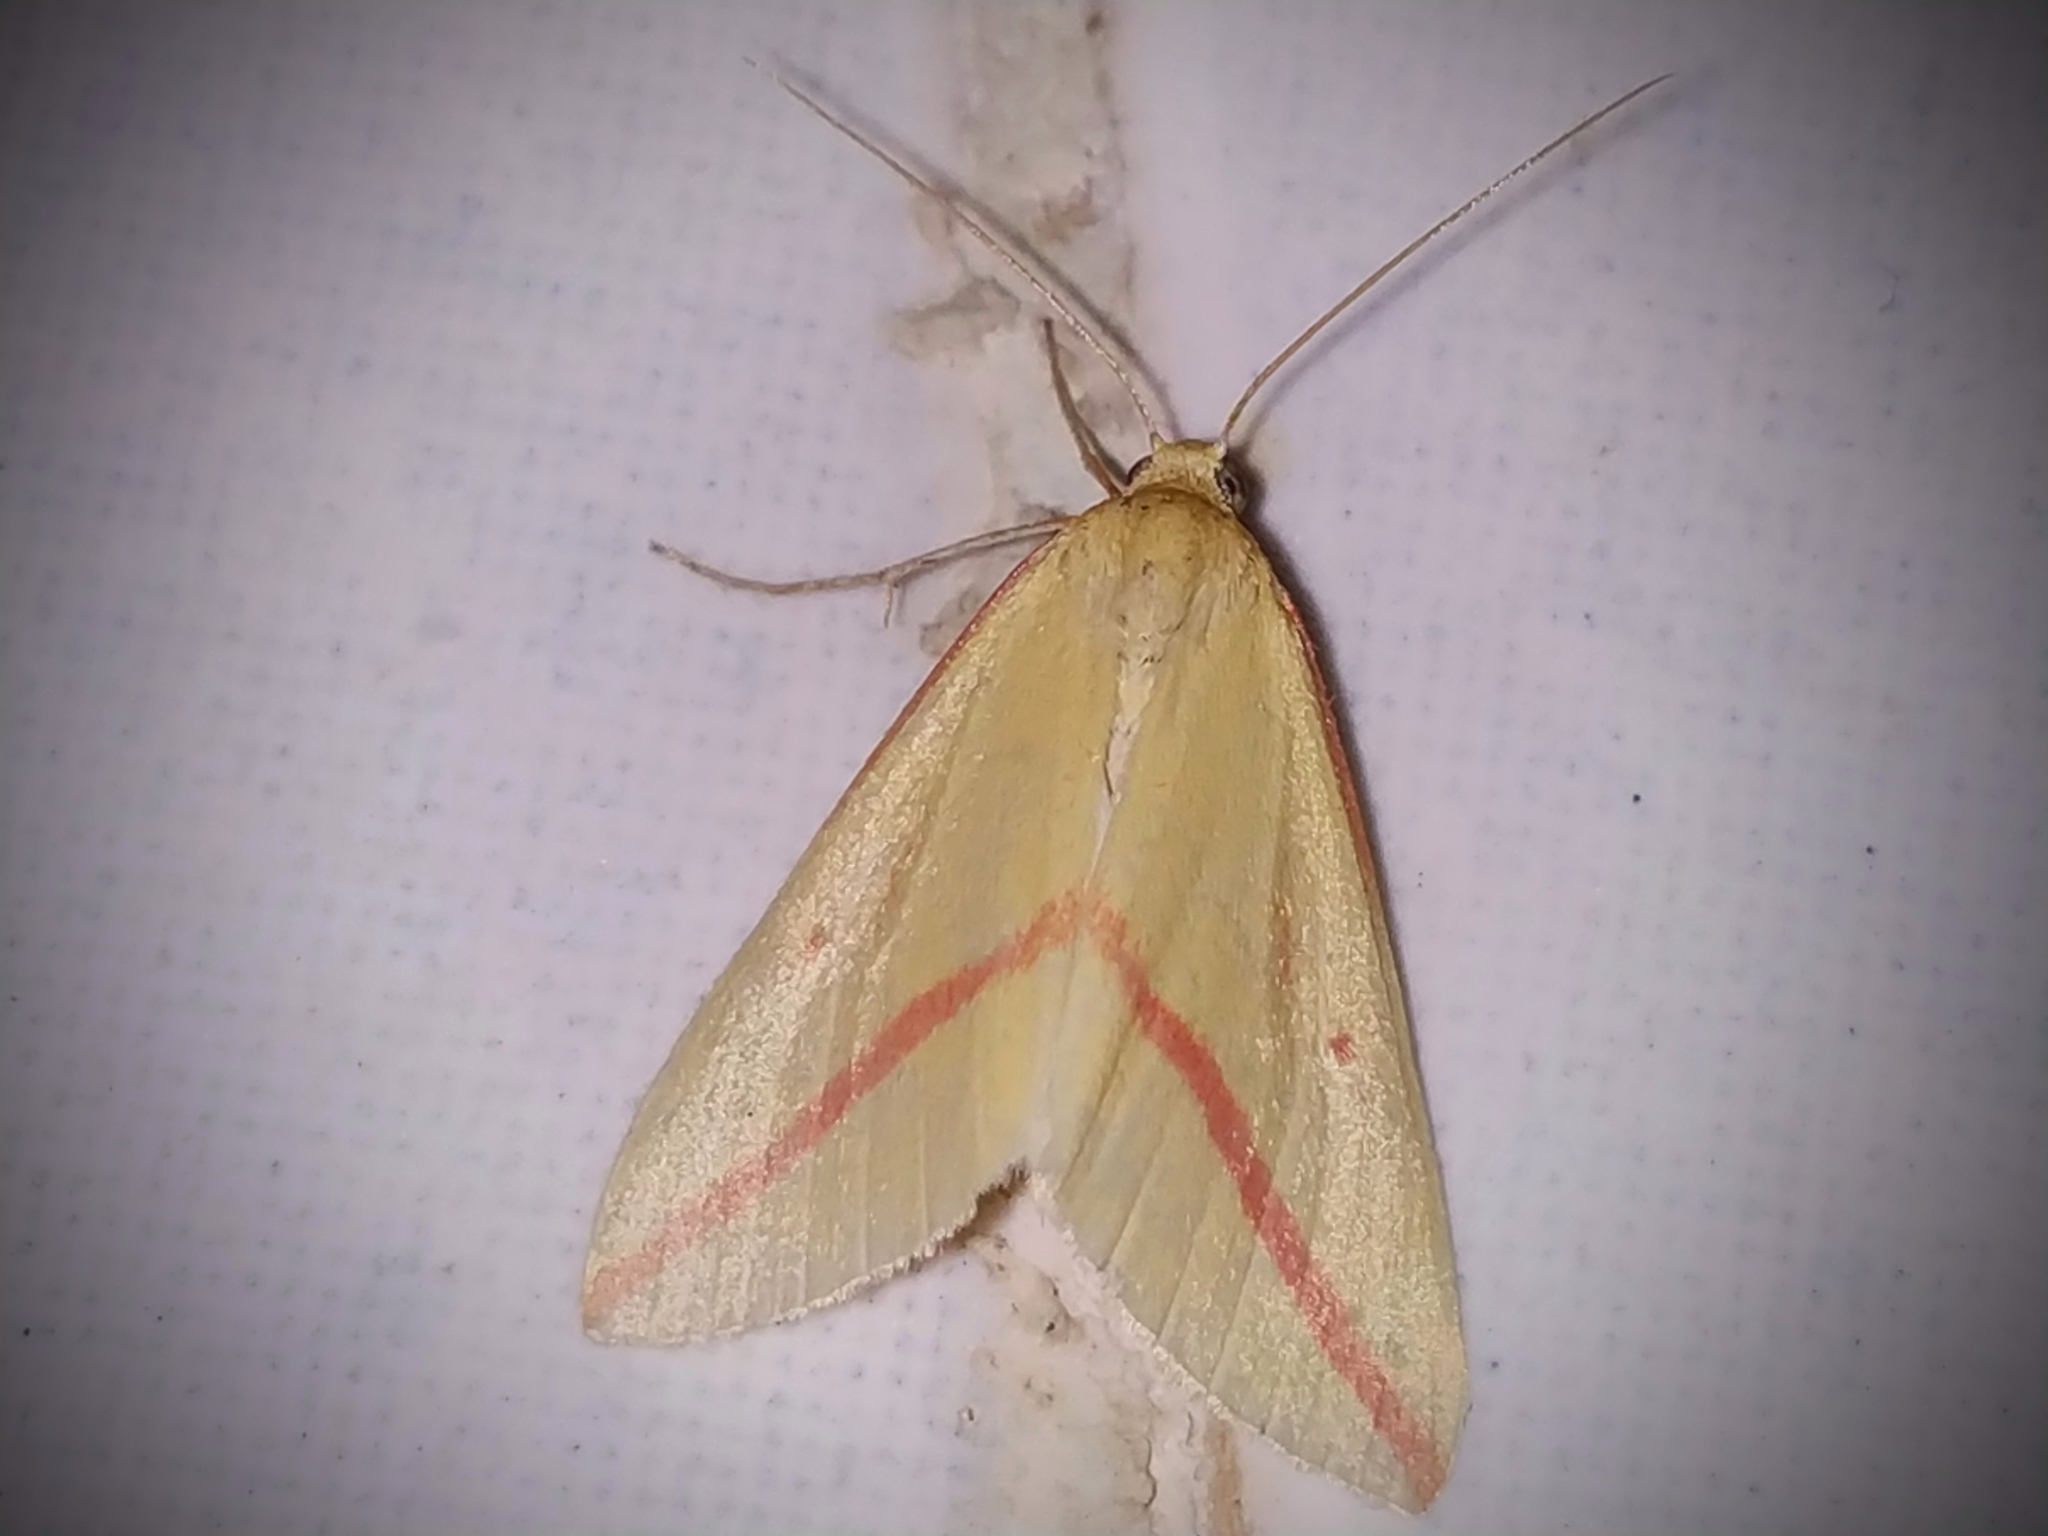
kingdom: Animalia
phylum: Arthropoda
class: Insecta
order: Lepidoptera
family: Geometridae
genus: Rhodometra
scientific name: Rhodometra sacraria
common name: Vestal
